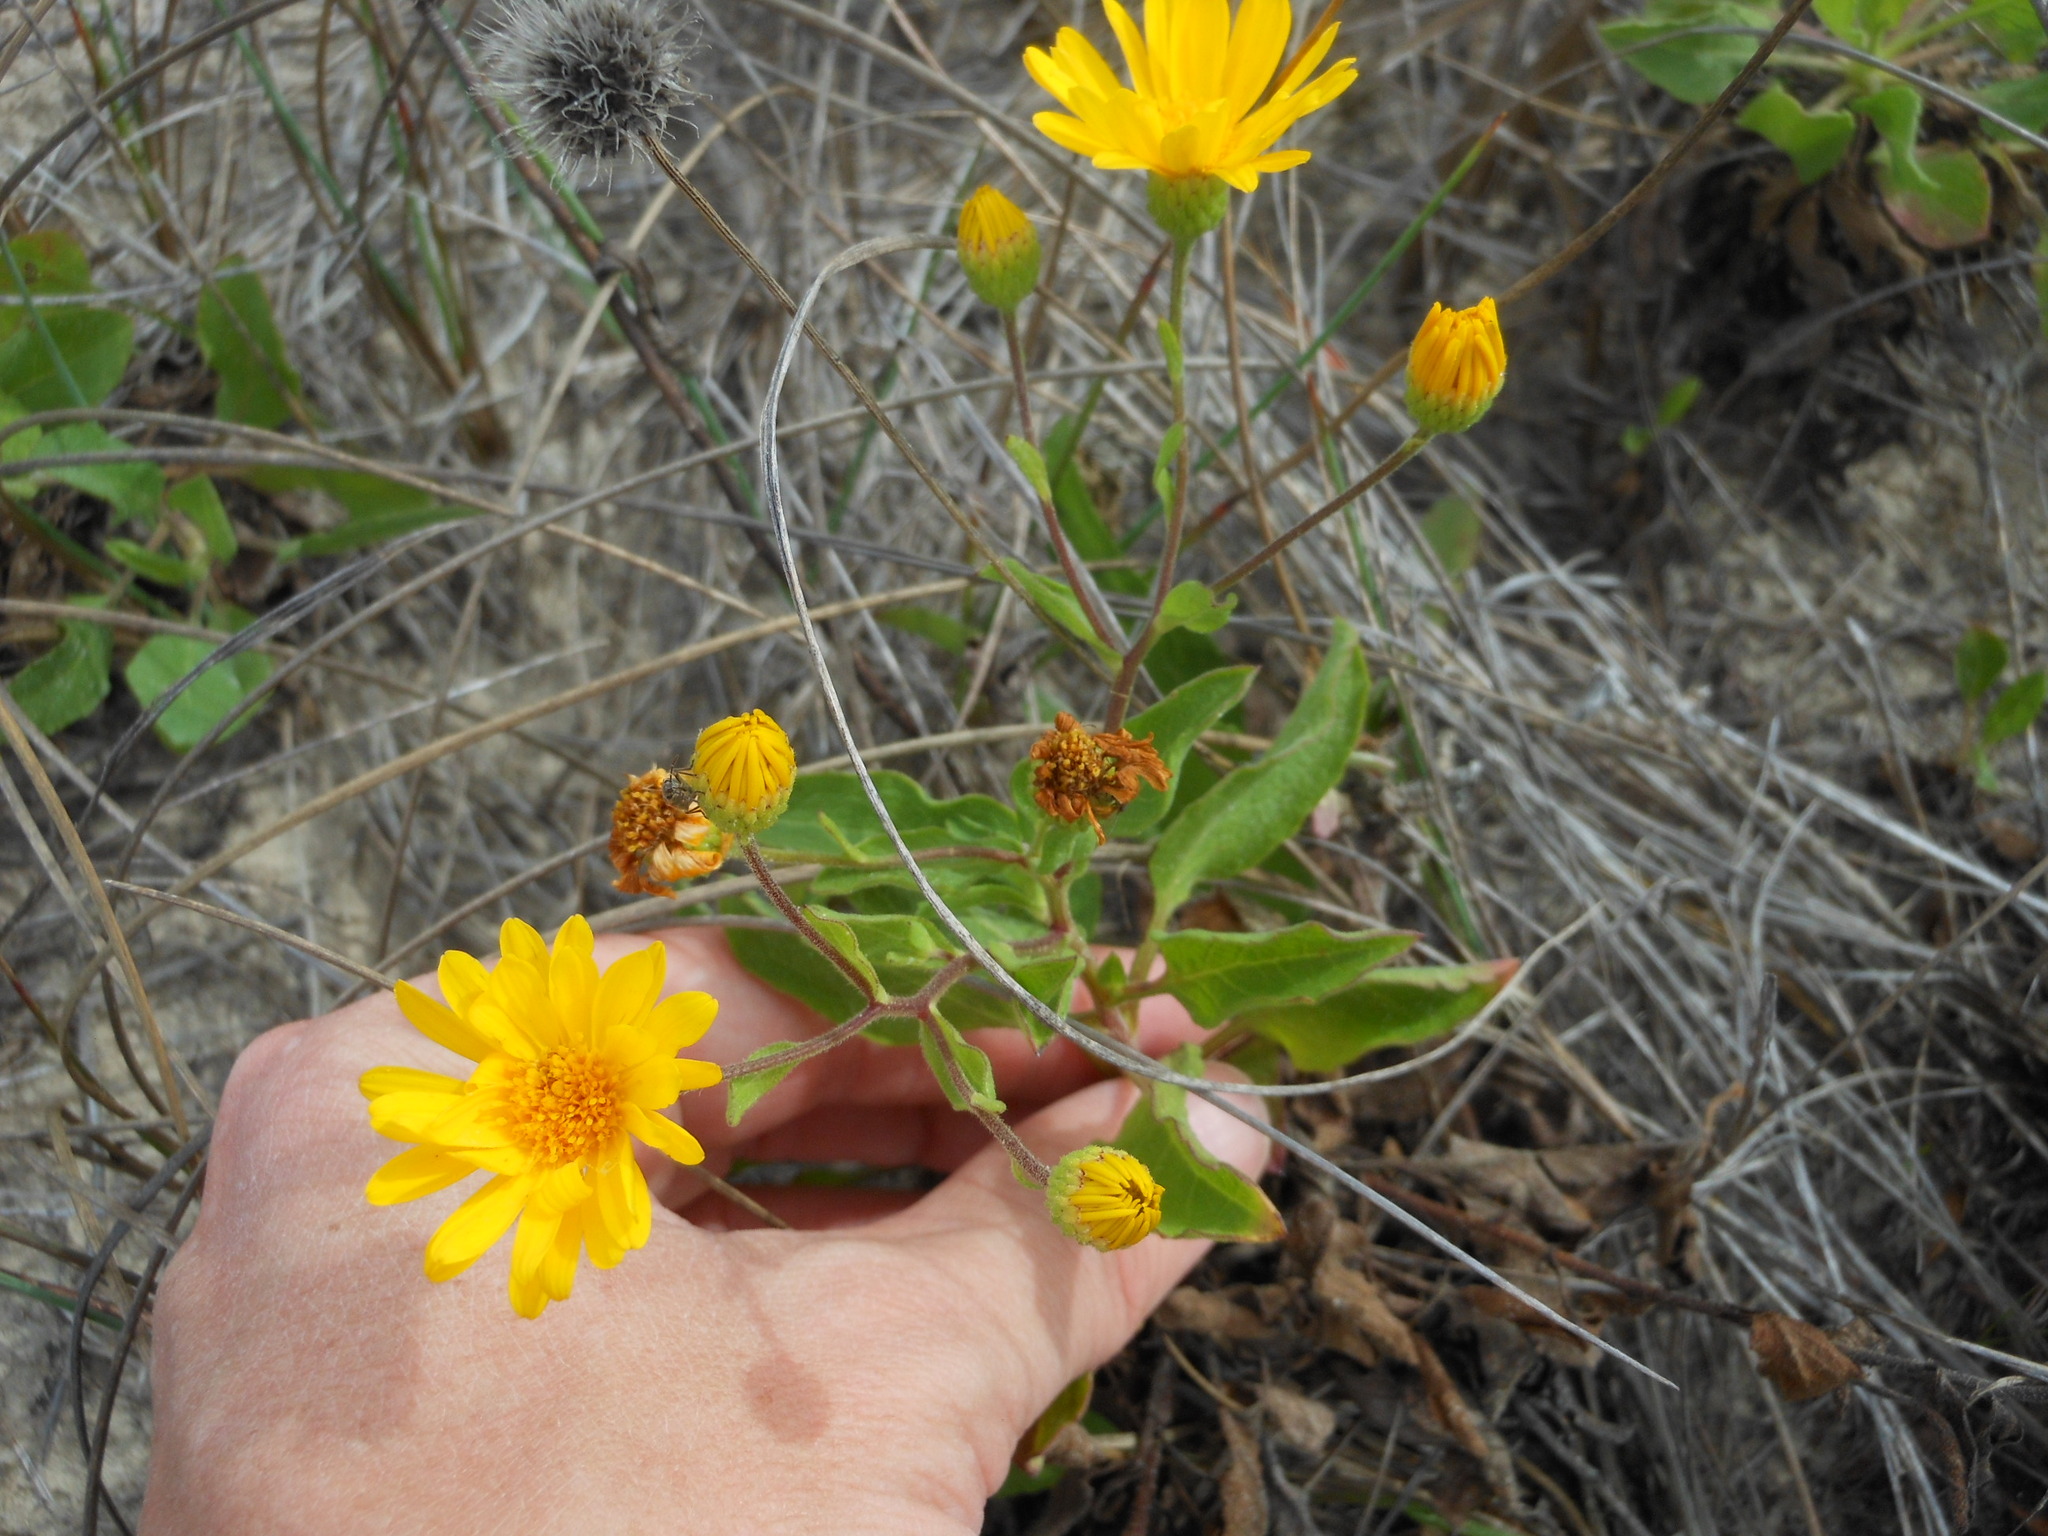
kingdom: Plantae
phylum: Tracheophyta
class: Magnoliopsida
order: Asterales
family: Asteraceae
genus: Heterotheca
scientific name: Heterotheca subaxillaris
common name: Camphorweed
